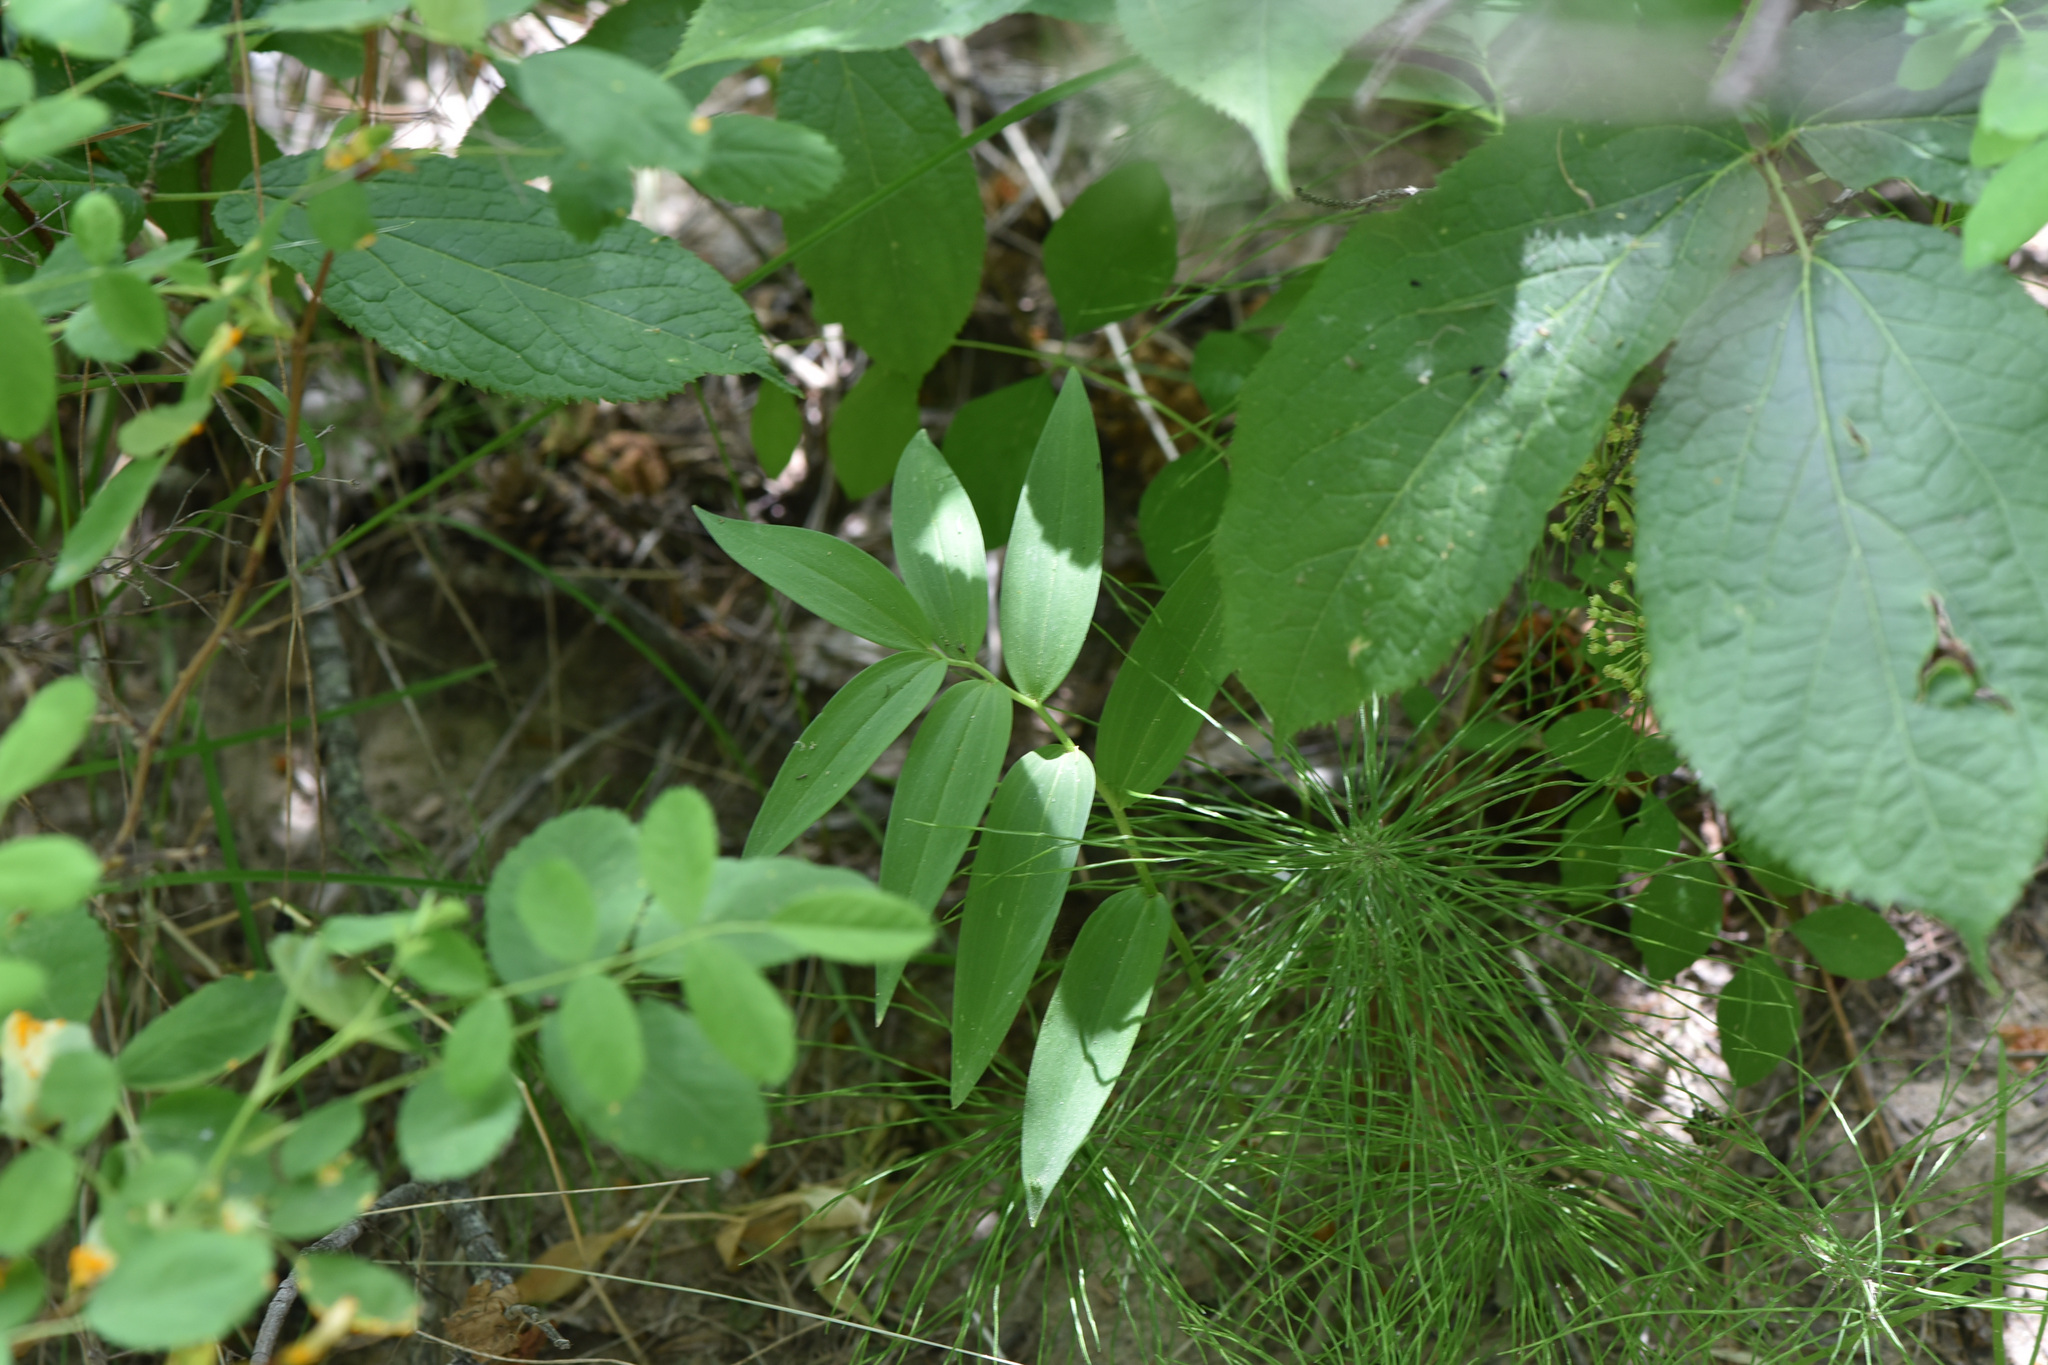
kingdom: Plantae
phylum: Tracheophyta
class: Liliopsida
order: Asparagales
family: Asparagaceae
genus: Maianthemum
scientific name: Maianthemum stellatum
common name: Little false solomon's seal
